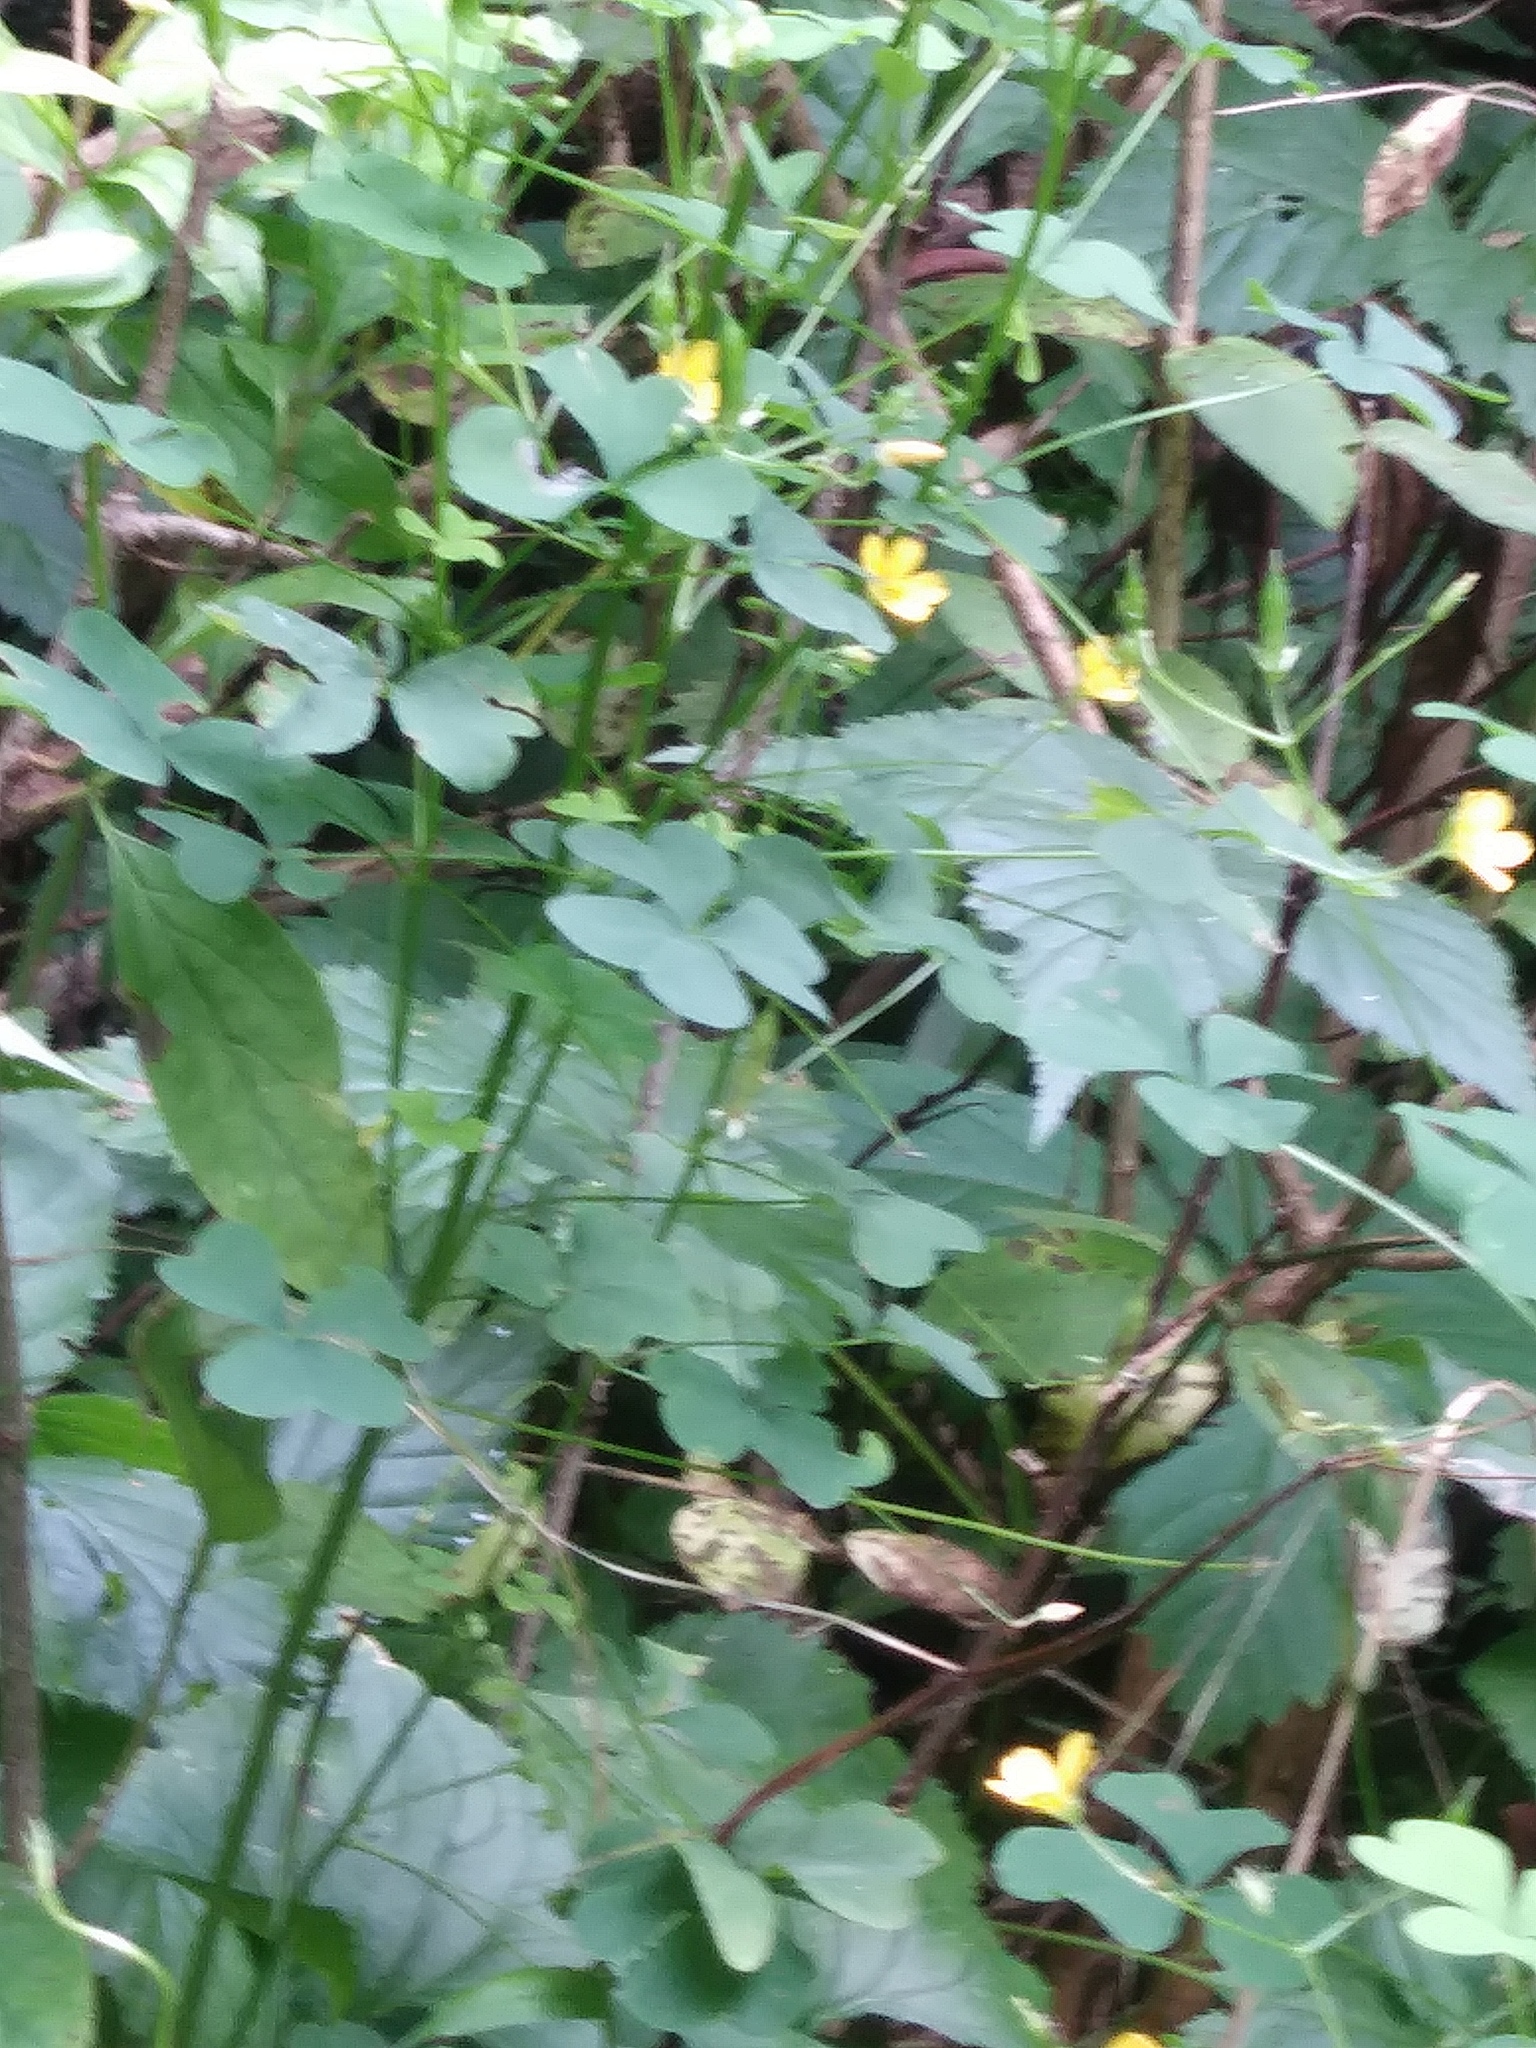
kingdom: Plantae
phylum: Tracheophyta
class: Magnoliopsida
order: Oxalidales
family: Oxalidaceae
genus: Oxalis
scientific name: Oxalis stricta
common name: Upright yellow-sorrel
